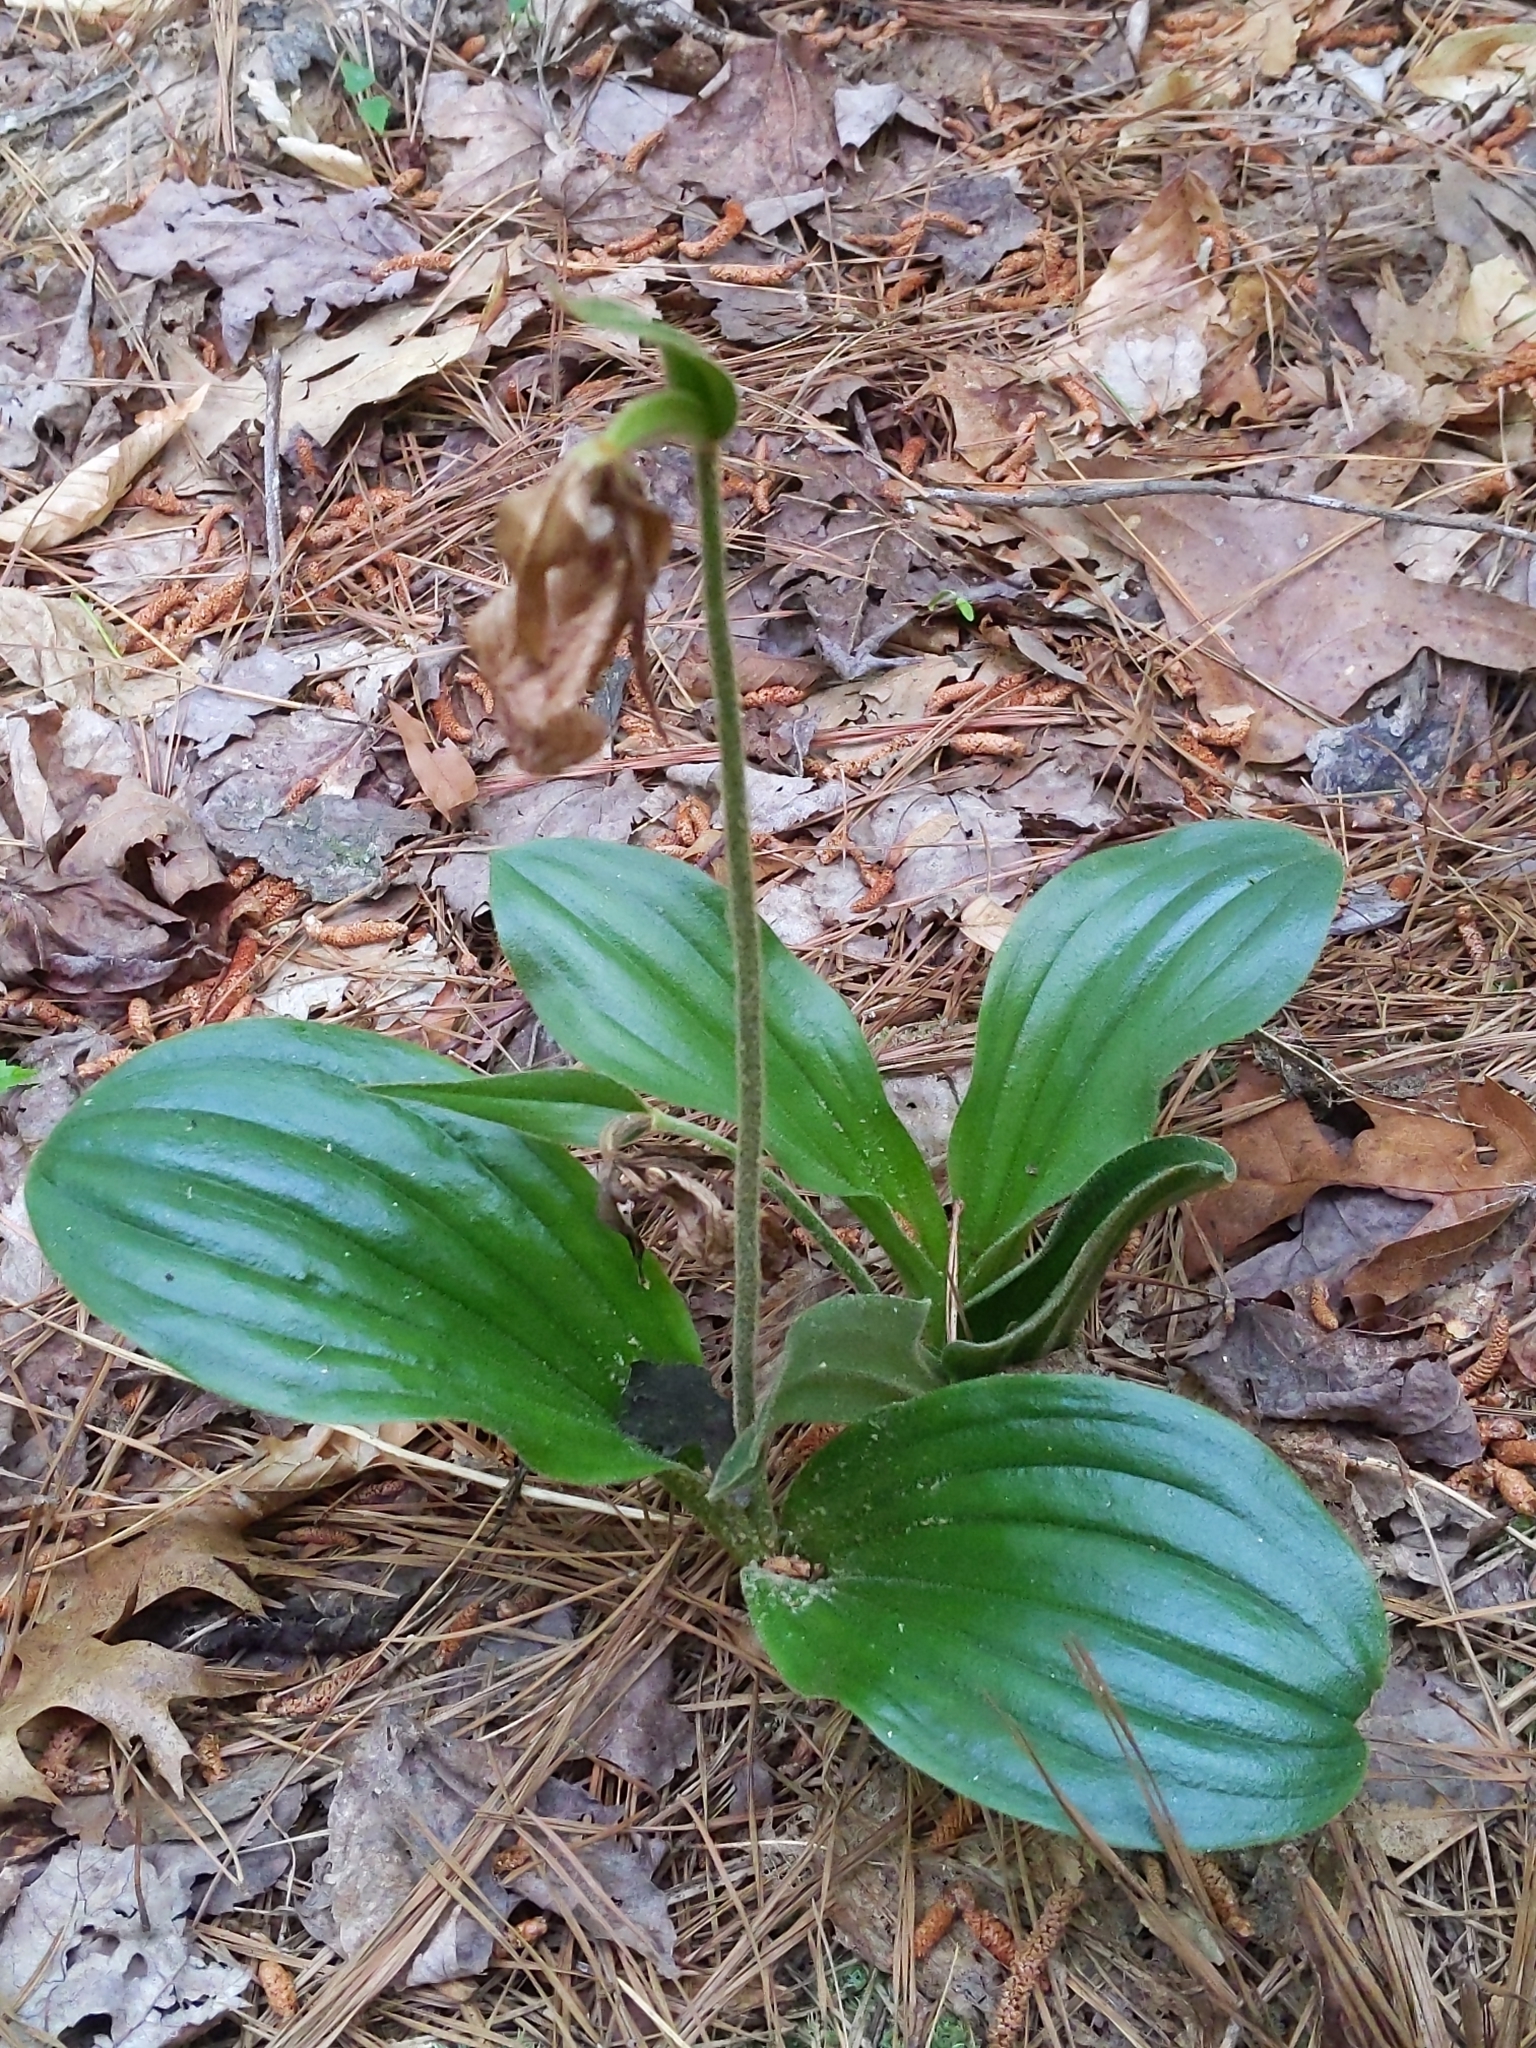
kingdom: Plantae
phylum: Tracheophyta
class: Liliopsida
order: Asparagales
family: Orchidaceae
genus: Cypripedium
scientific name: Cypripedium acaule
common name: Pink lady's-slipper
